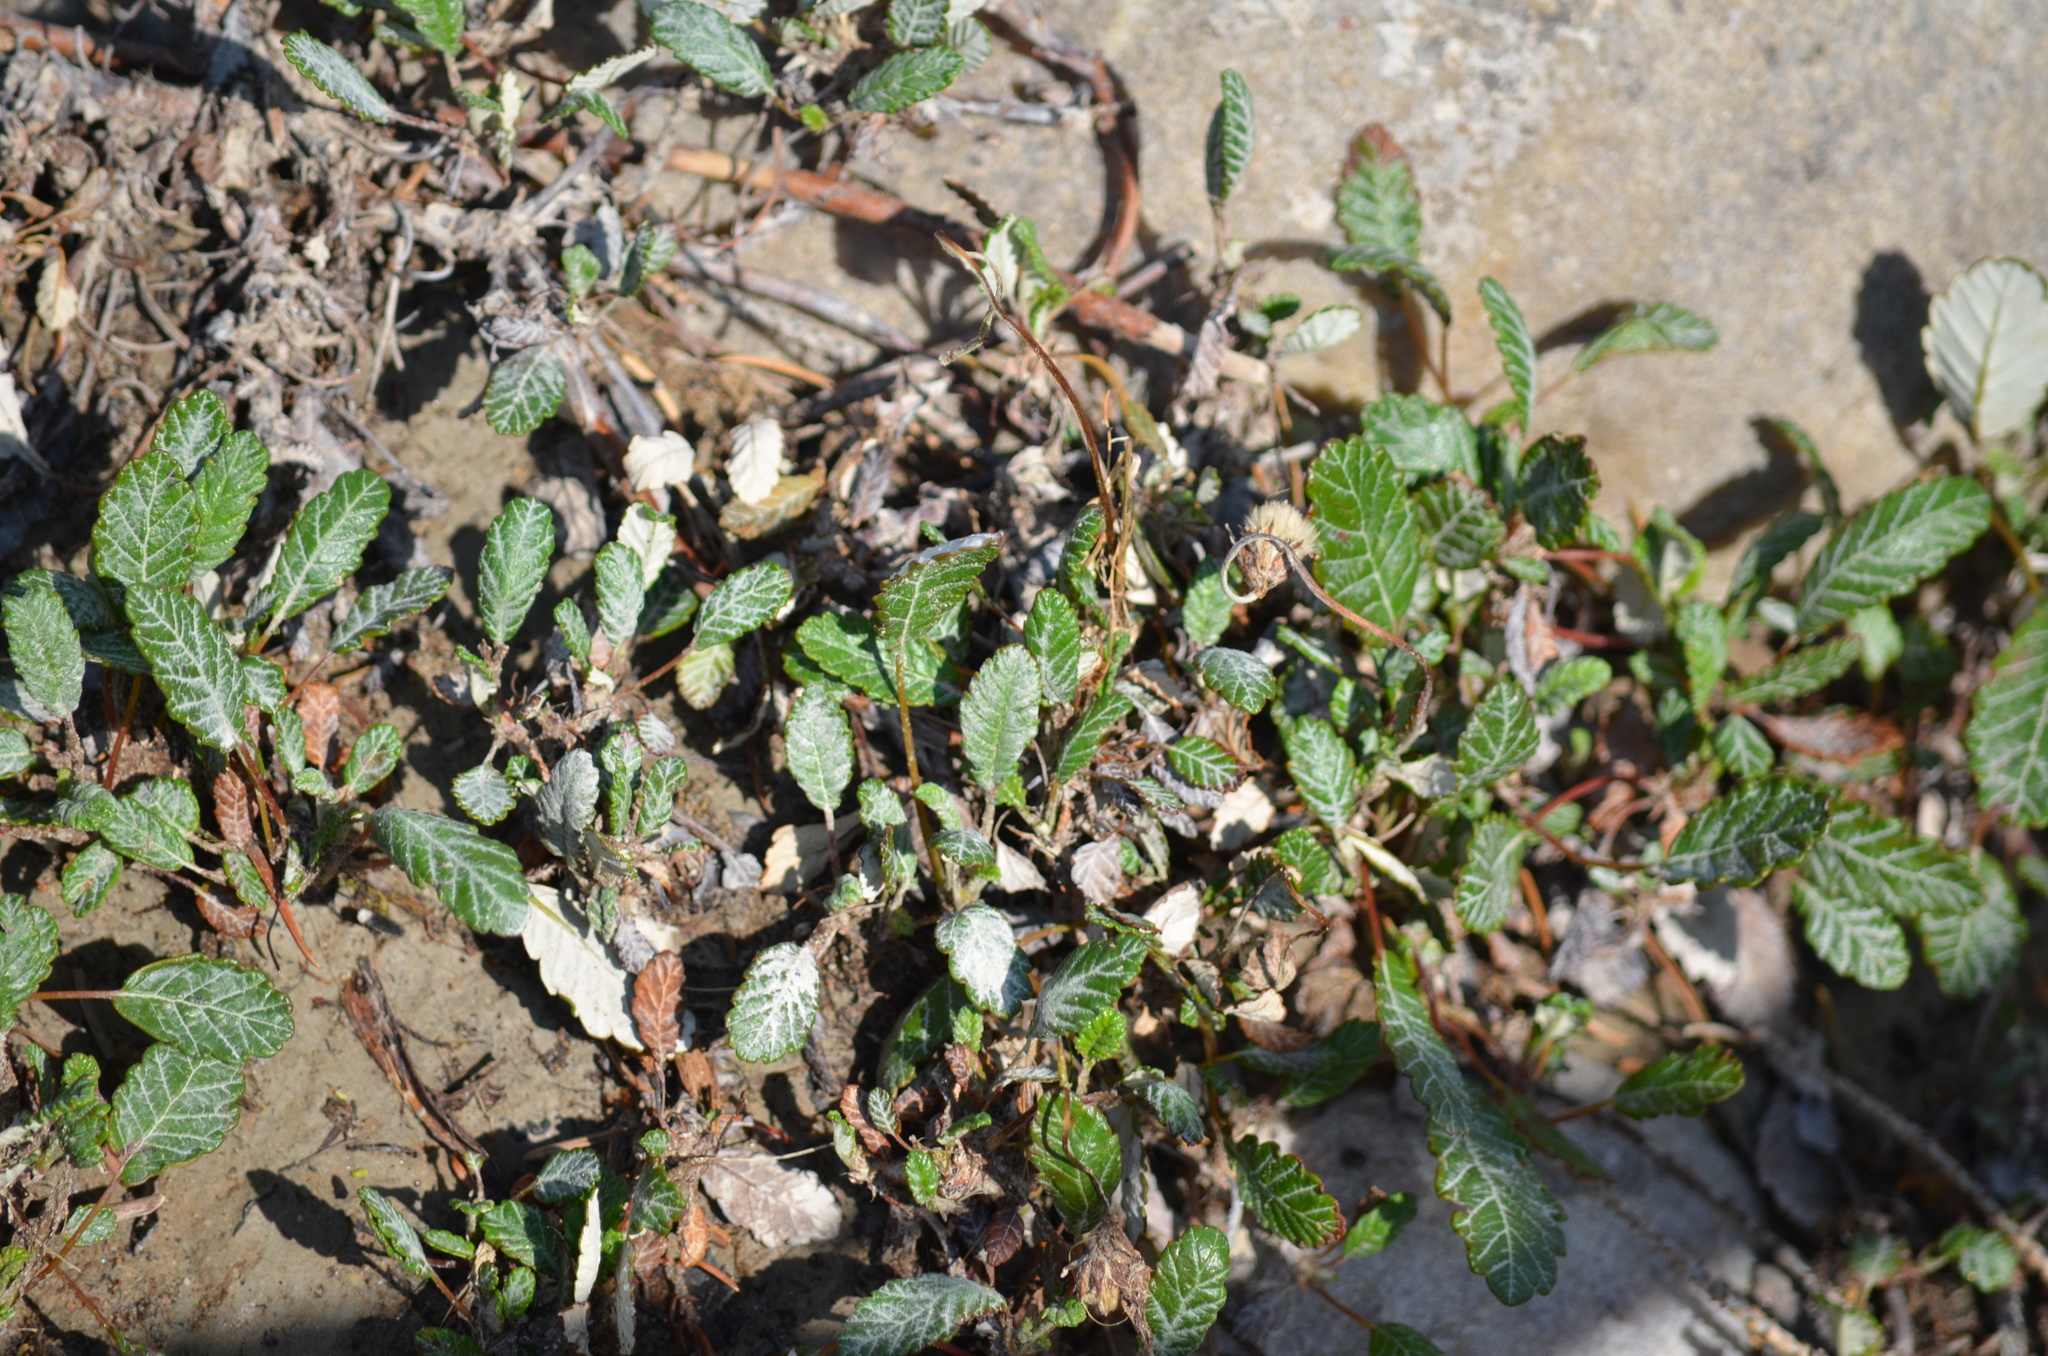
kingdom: Plantae
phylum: Tracheophyta
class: Magnoliopsida
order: Rosales
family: Rosaceae
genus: Dryas
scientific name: Dryas drummondii
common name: Drummond's dryad
